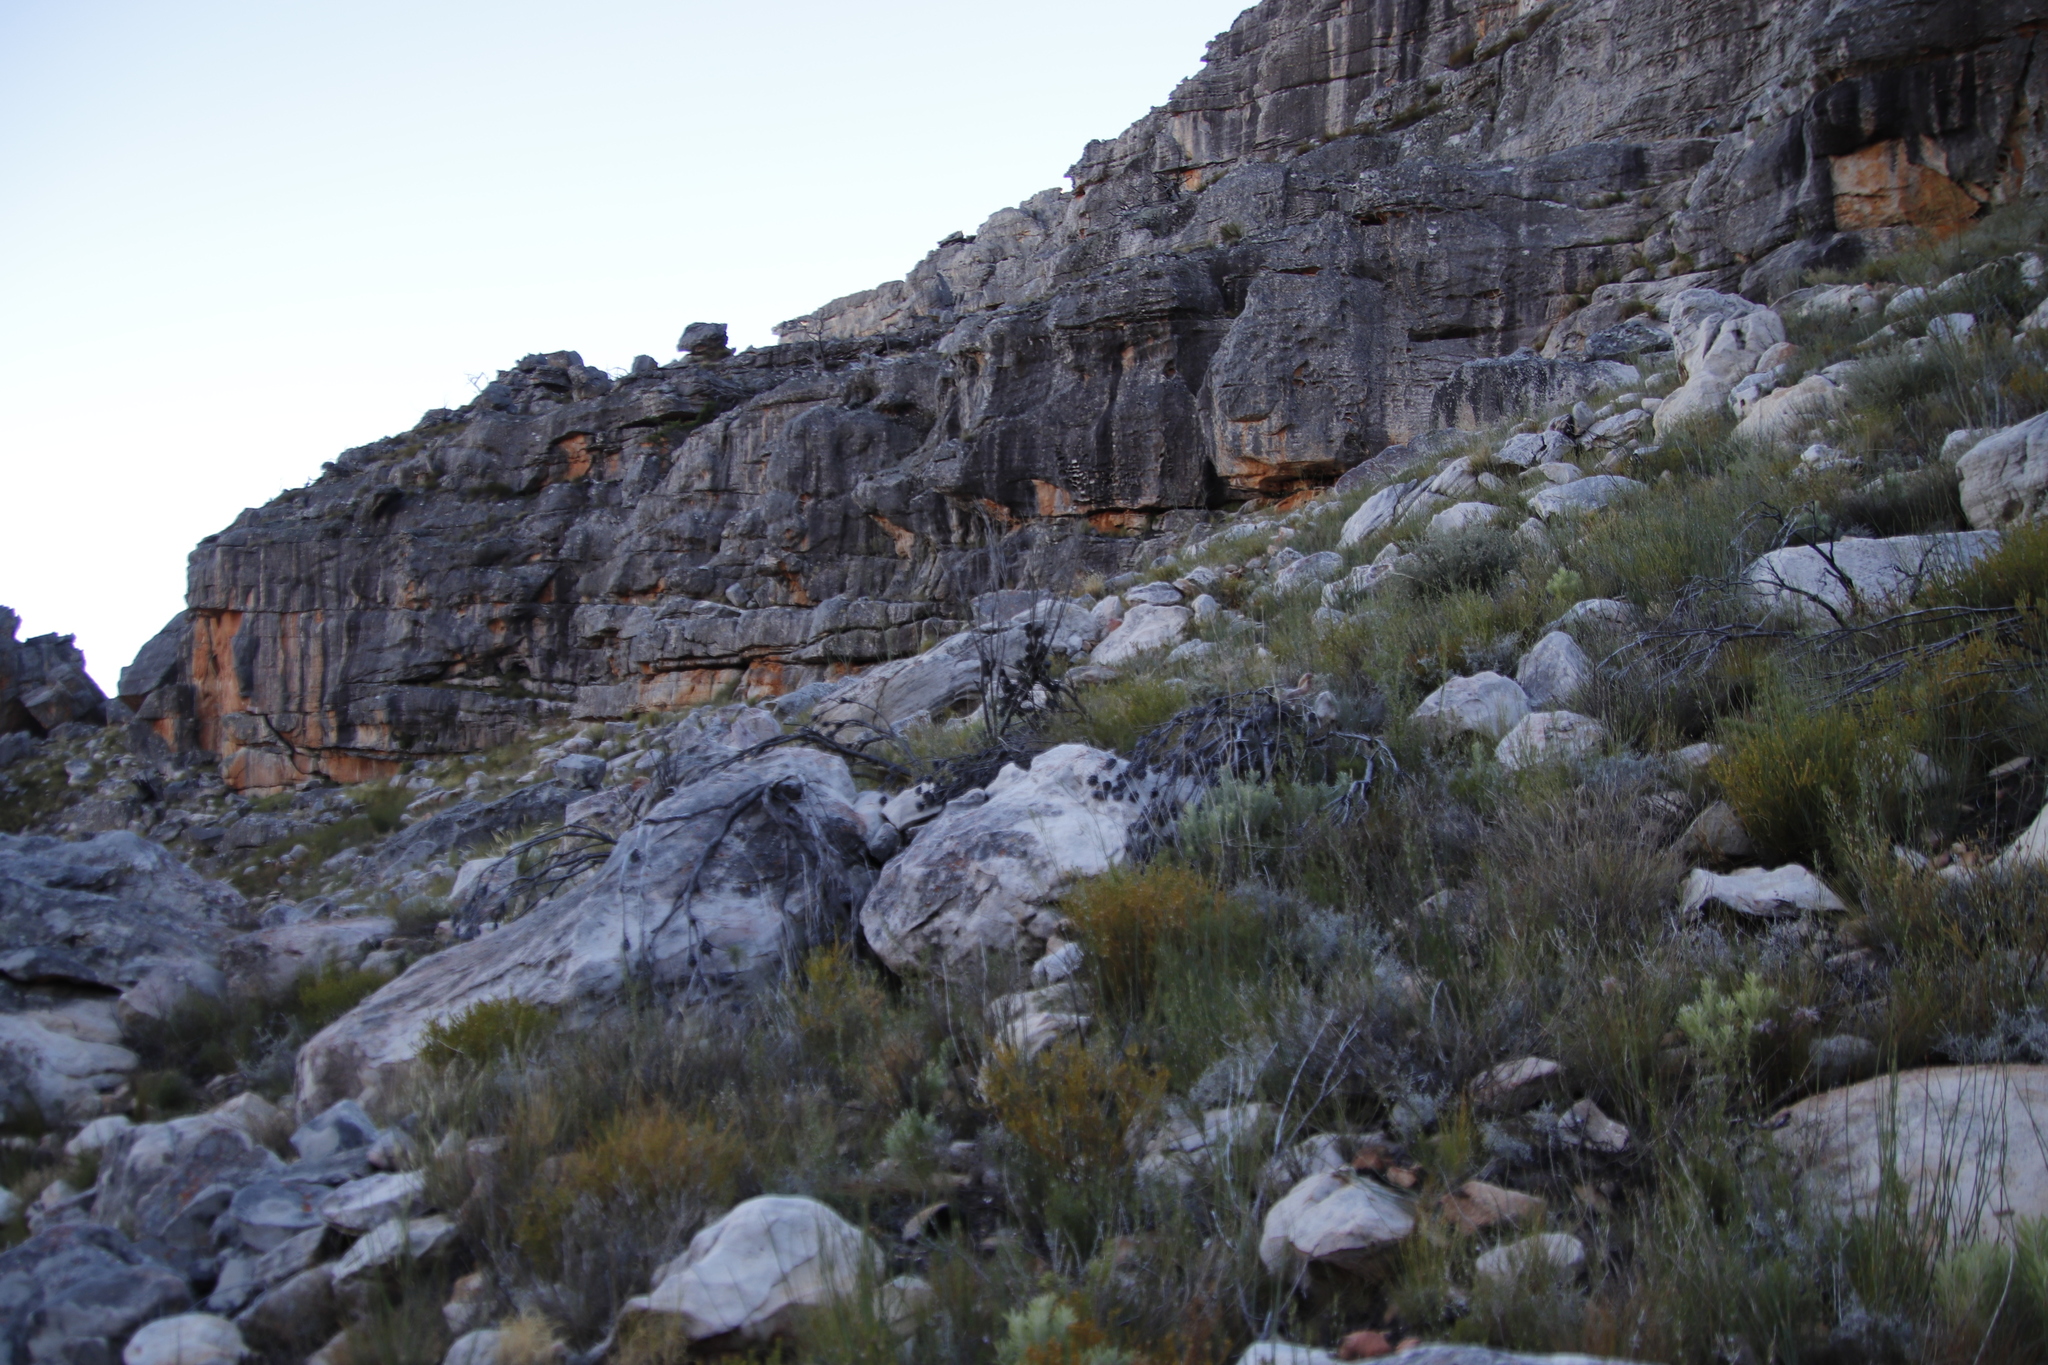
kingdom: Plantae
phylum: Tracheophyta
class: Magnoliopsida
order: Proteales
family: Proteaceae
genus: Leucadendron
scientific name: Leucadendron rubrum
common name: Spinning top
